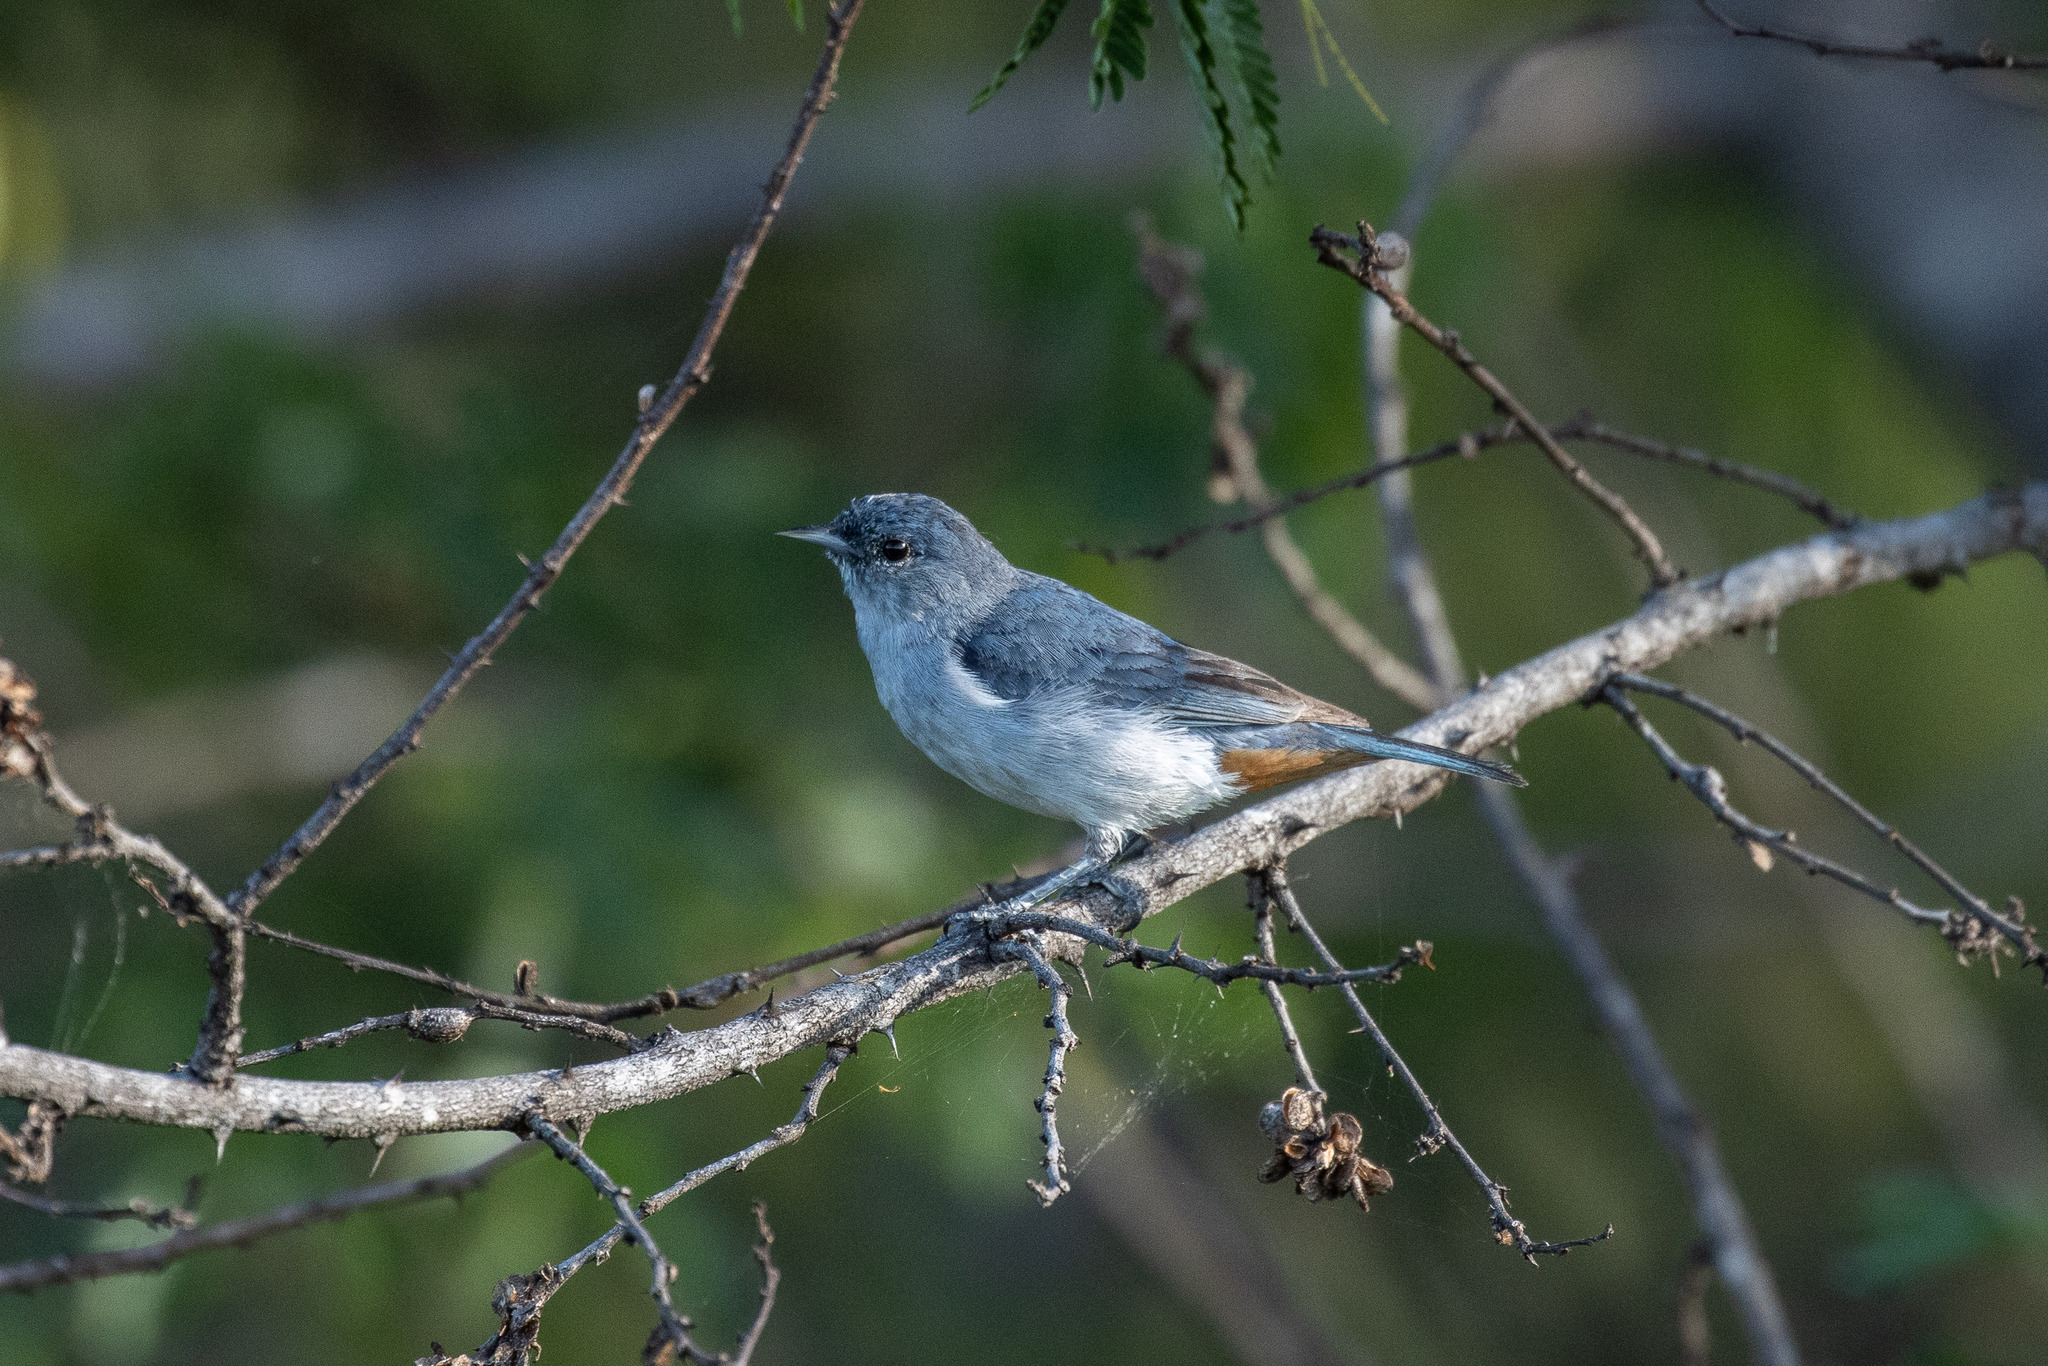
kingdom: Animalia
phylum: Chordata
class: Aves
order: Passeriformes
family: Thraupidae
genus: Conirostrum
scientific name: Conirostrum speciosum
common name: Chestnut-vented conebill
